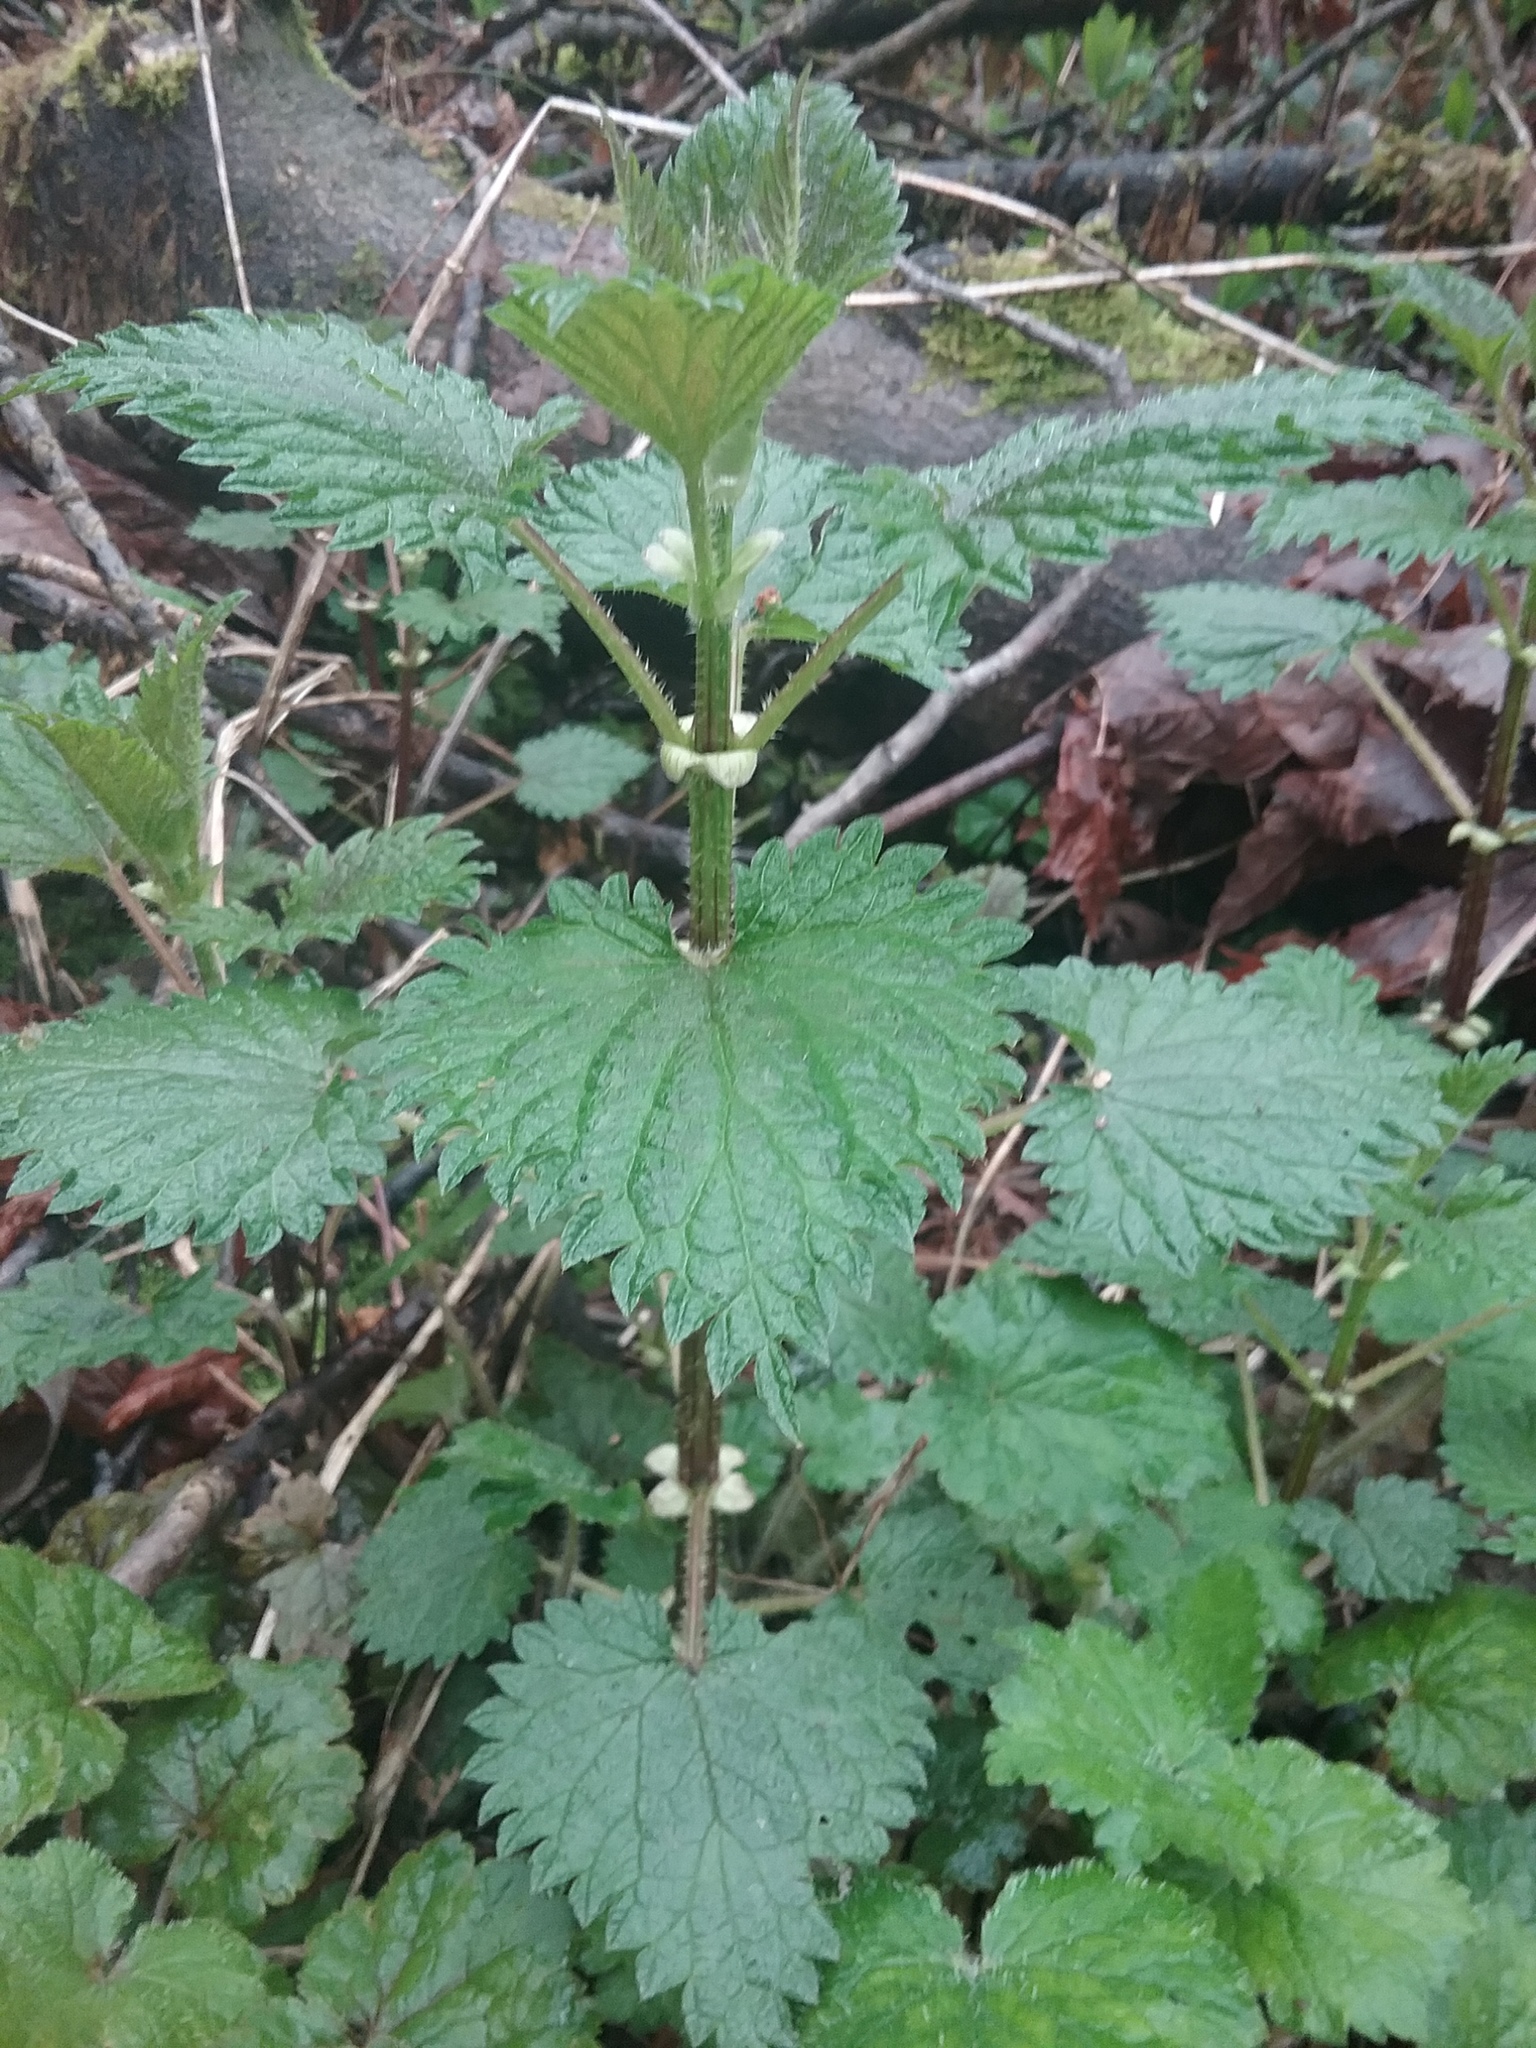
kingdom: Plantae
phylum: Tracheophyta
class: Magnoliopsida
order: Rosales
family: Urticaceae
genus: Urtica
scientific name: Urtica gracilis
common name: Slender stinging nettle
